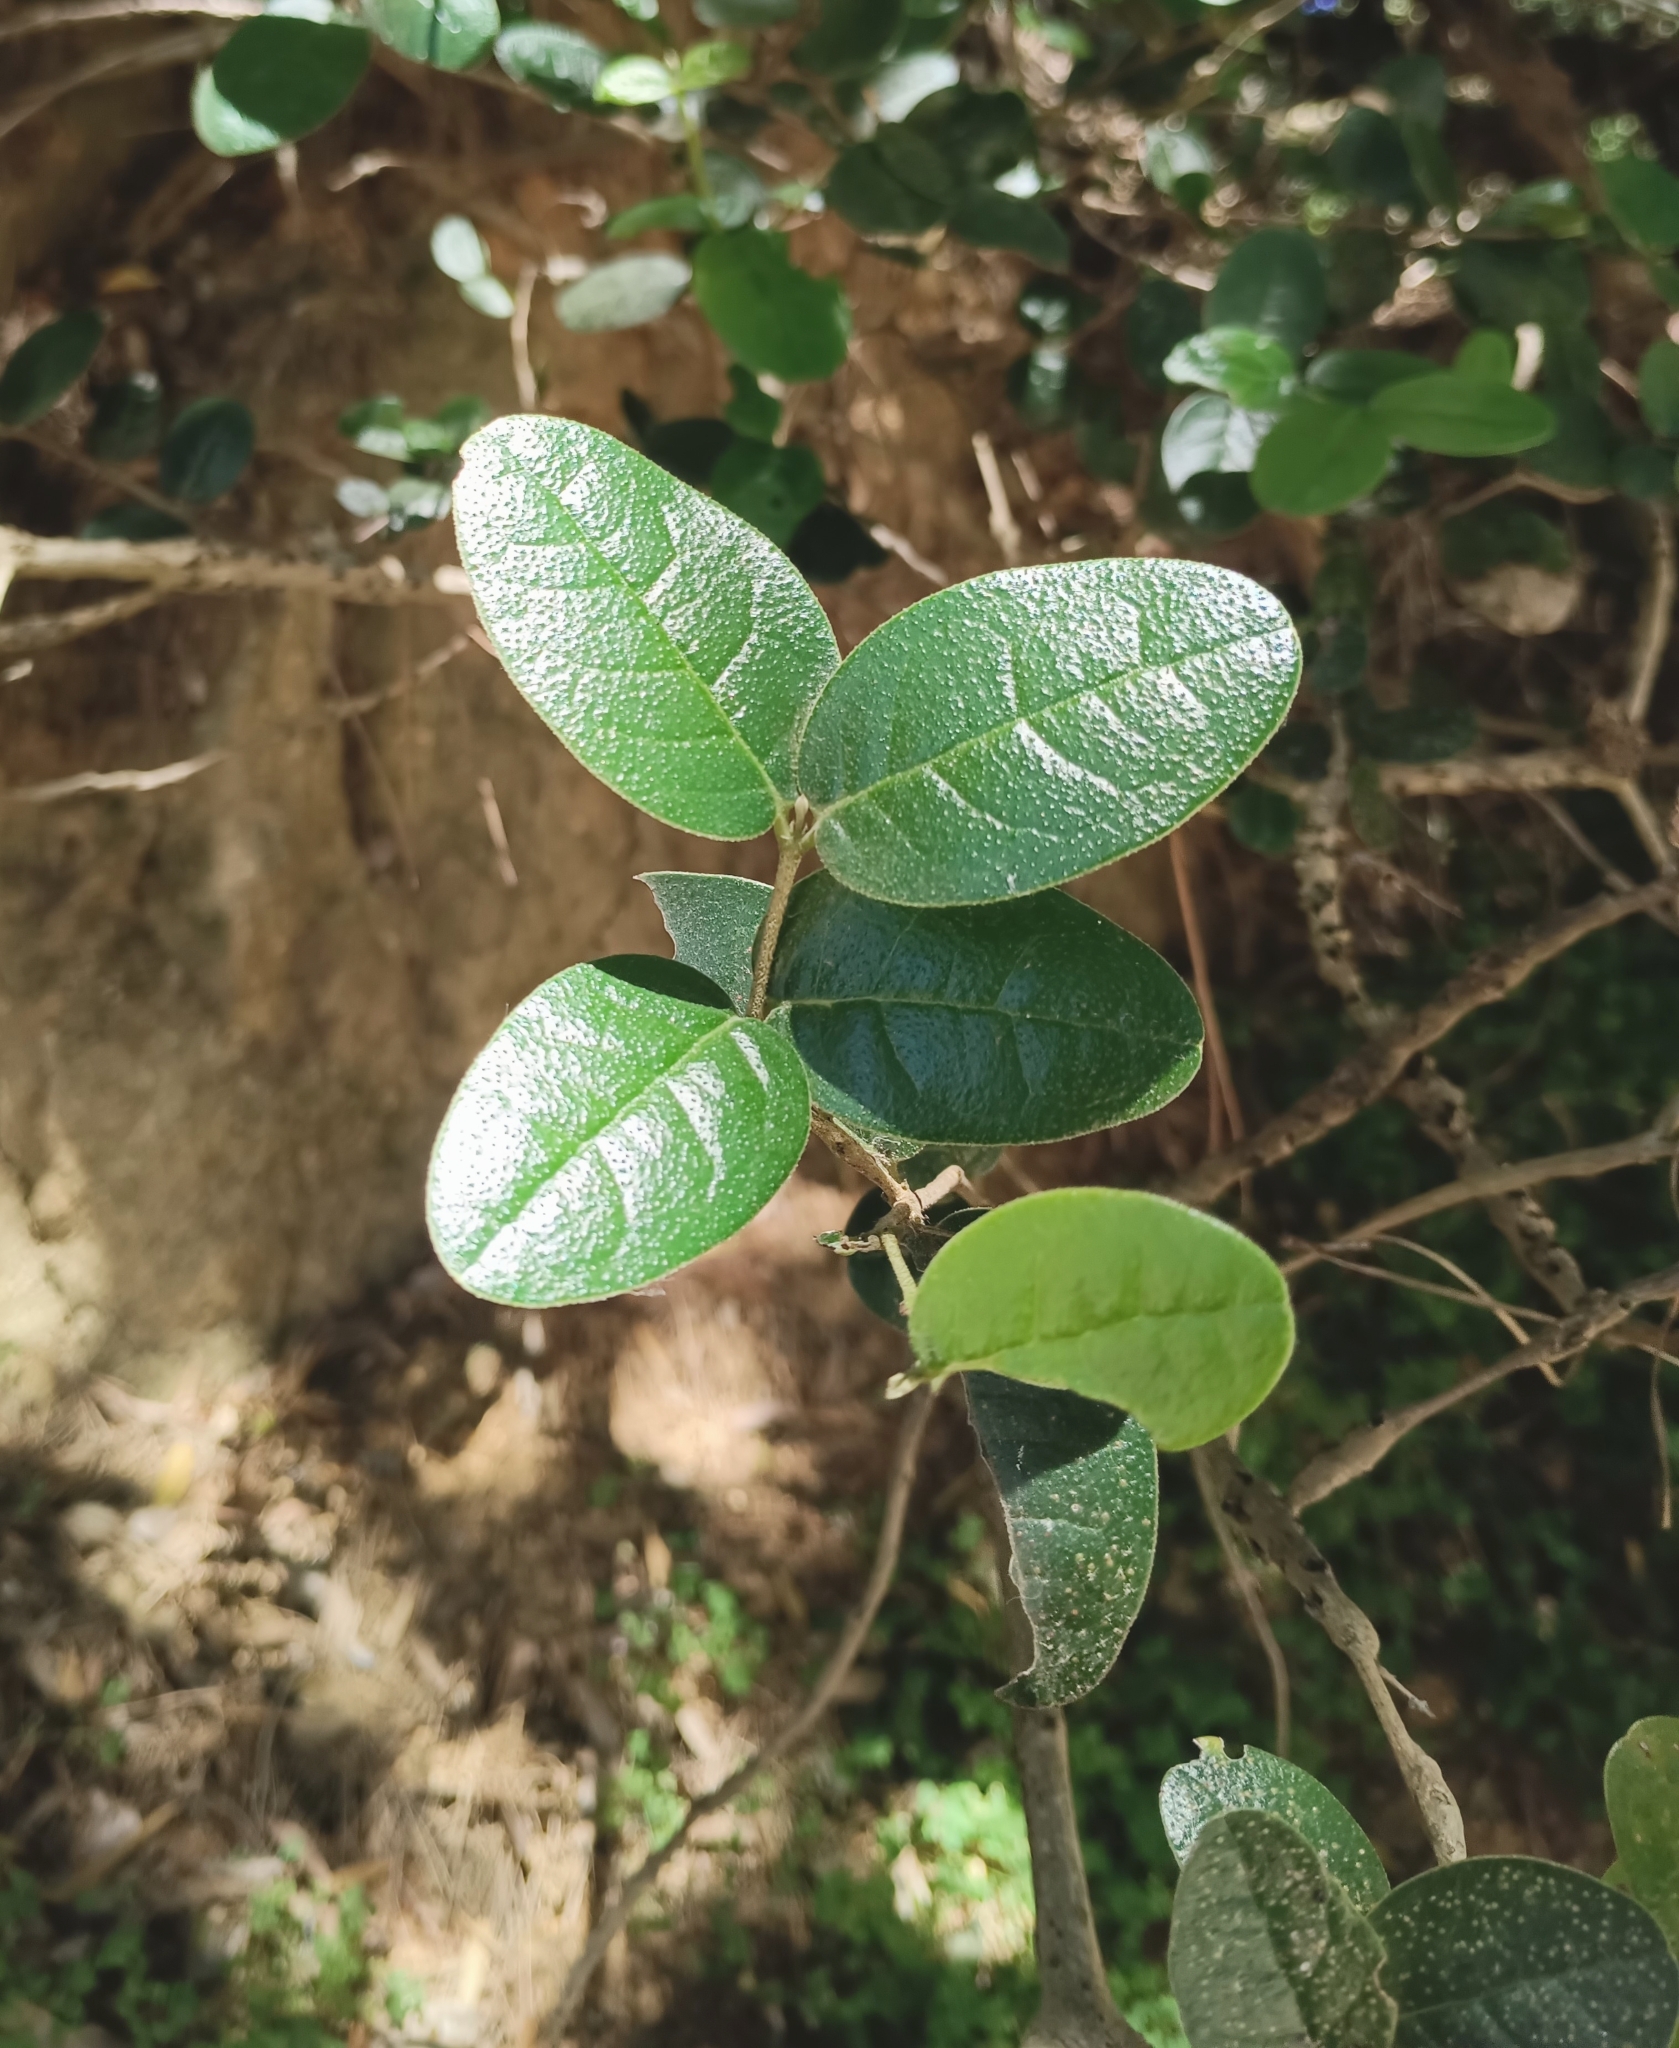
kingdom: Plantae
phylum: Tracheophyta
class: Magnoliopsida
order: Laurales
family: Monimiaceae
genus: Peumus
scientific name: Peumus boldus
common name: Boldo
